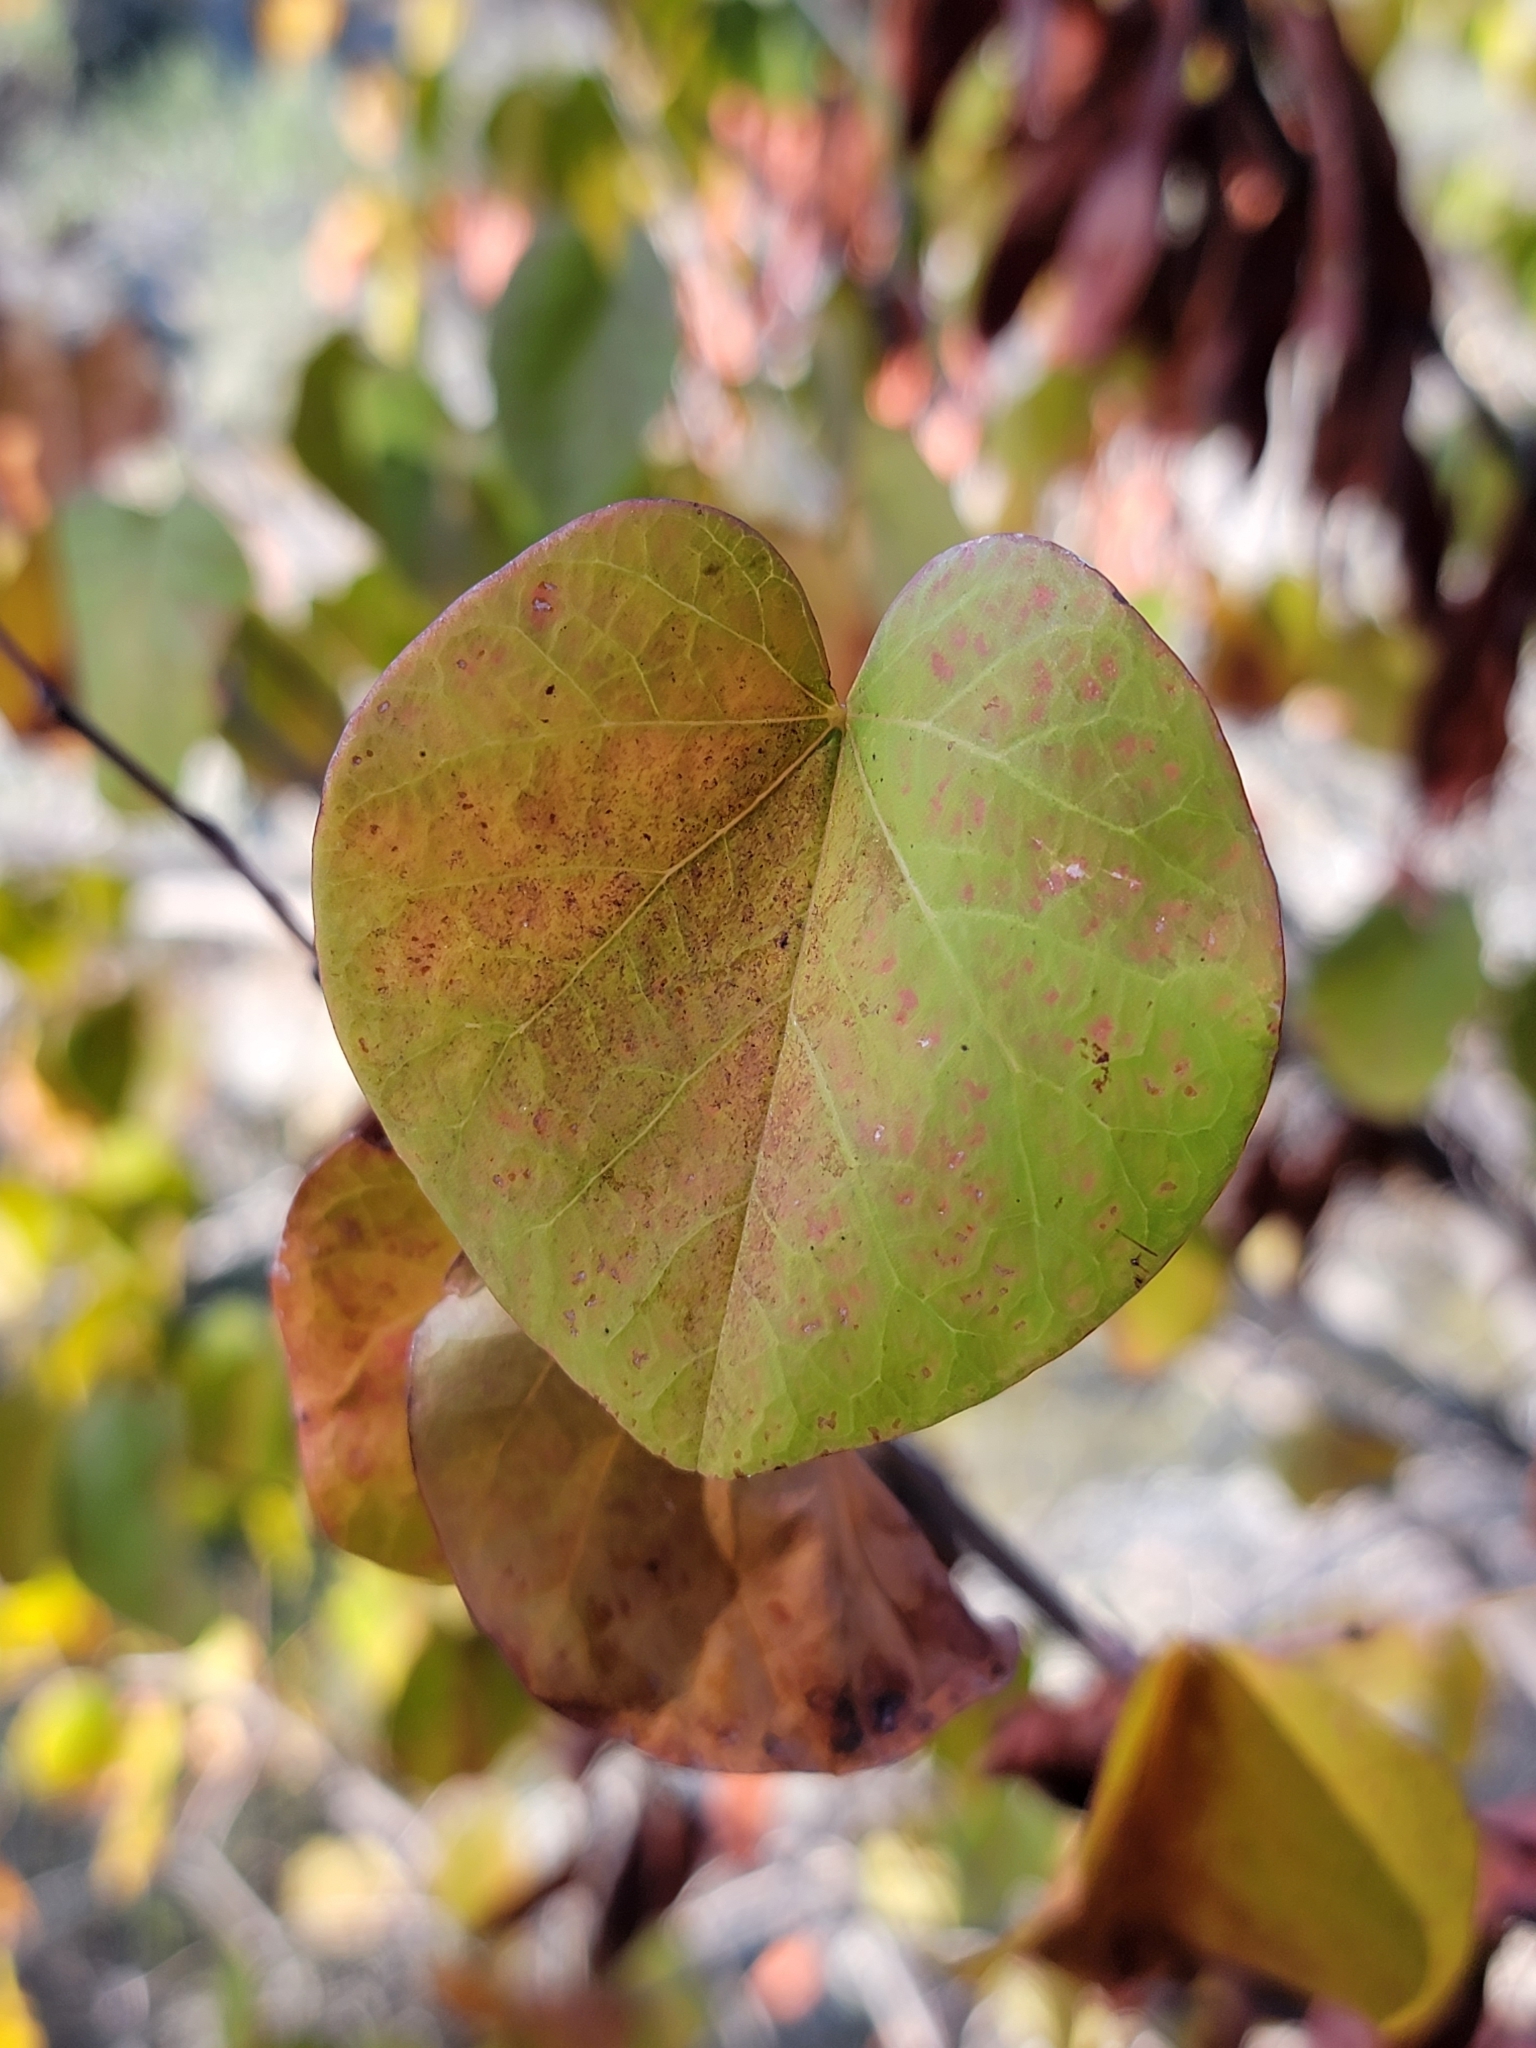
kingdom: Plantae
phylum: Tracheophyta
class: Magnoliopsida
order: Fabales
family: Fabaceae
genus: Cercis
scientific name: Cercis occidentalis
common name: California redbud
